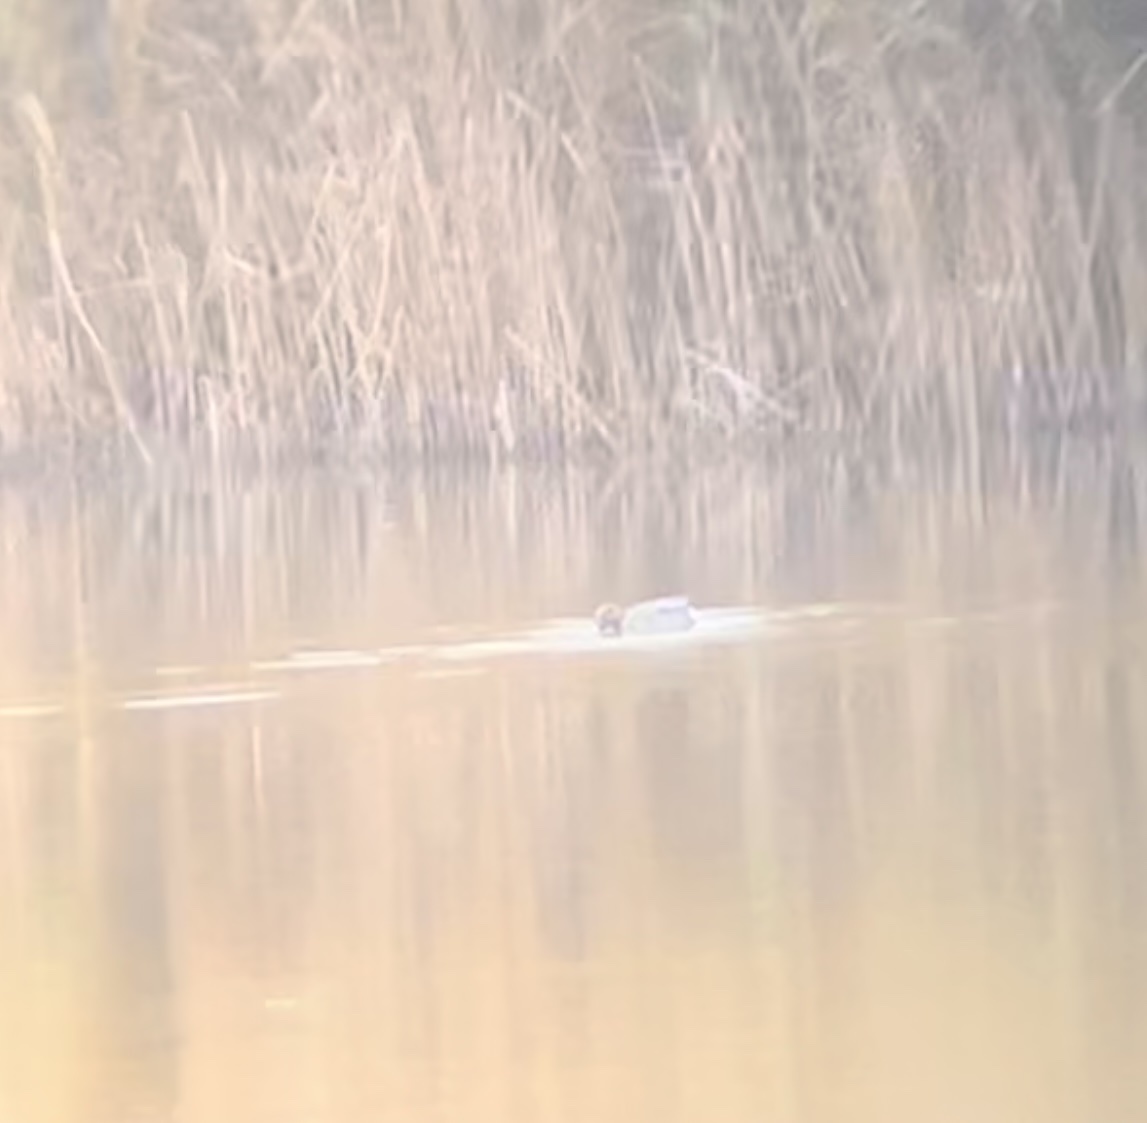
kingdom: Animalia
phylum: Chordata
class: Aves
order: Anseriformes
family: Anatidae
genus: Mareca
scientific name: Mareca penelope
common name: Eurasian wigeon
